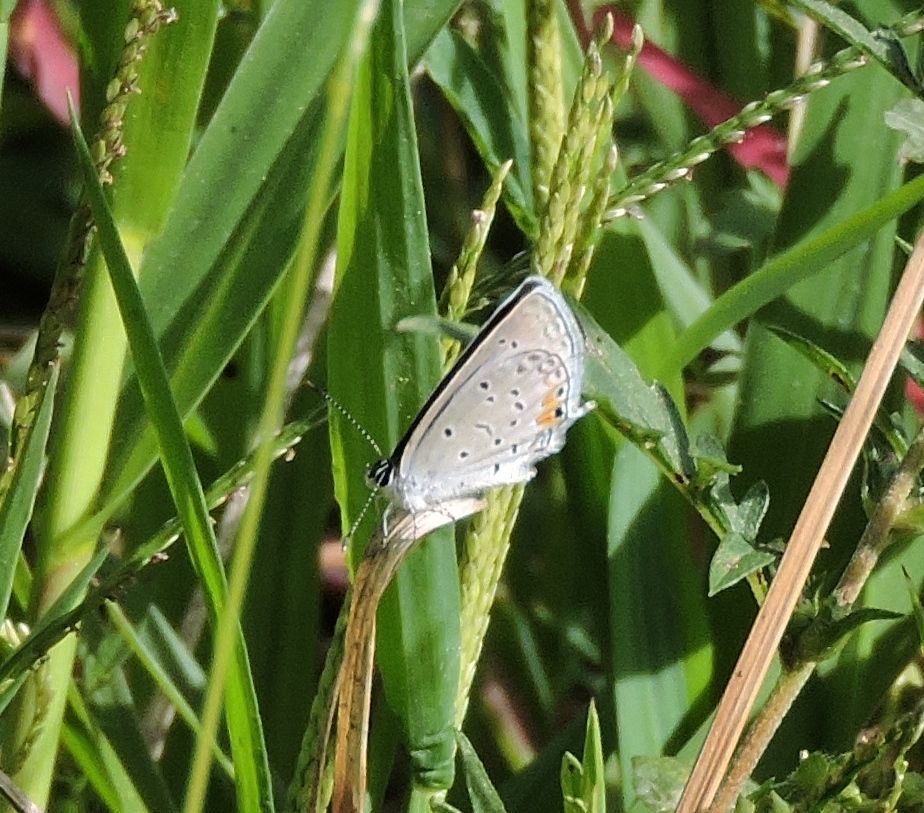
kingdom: Animalia
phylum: Arthropoda
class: Insecta
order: Lepidoptera
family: Lycaenidae
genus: Elkalyce
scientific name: Elkalyce comyntas
